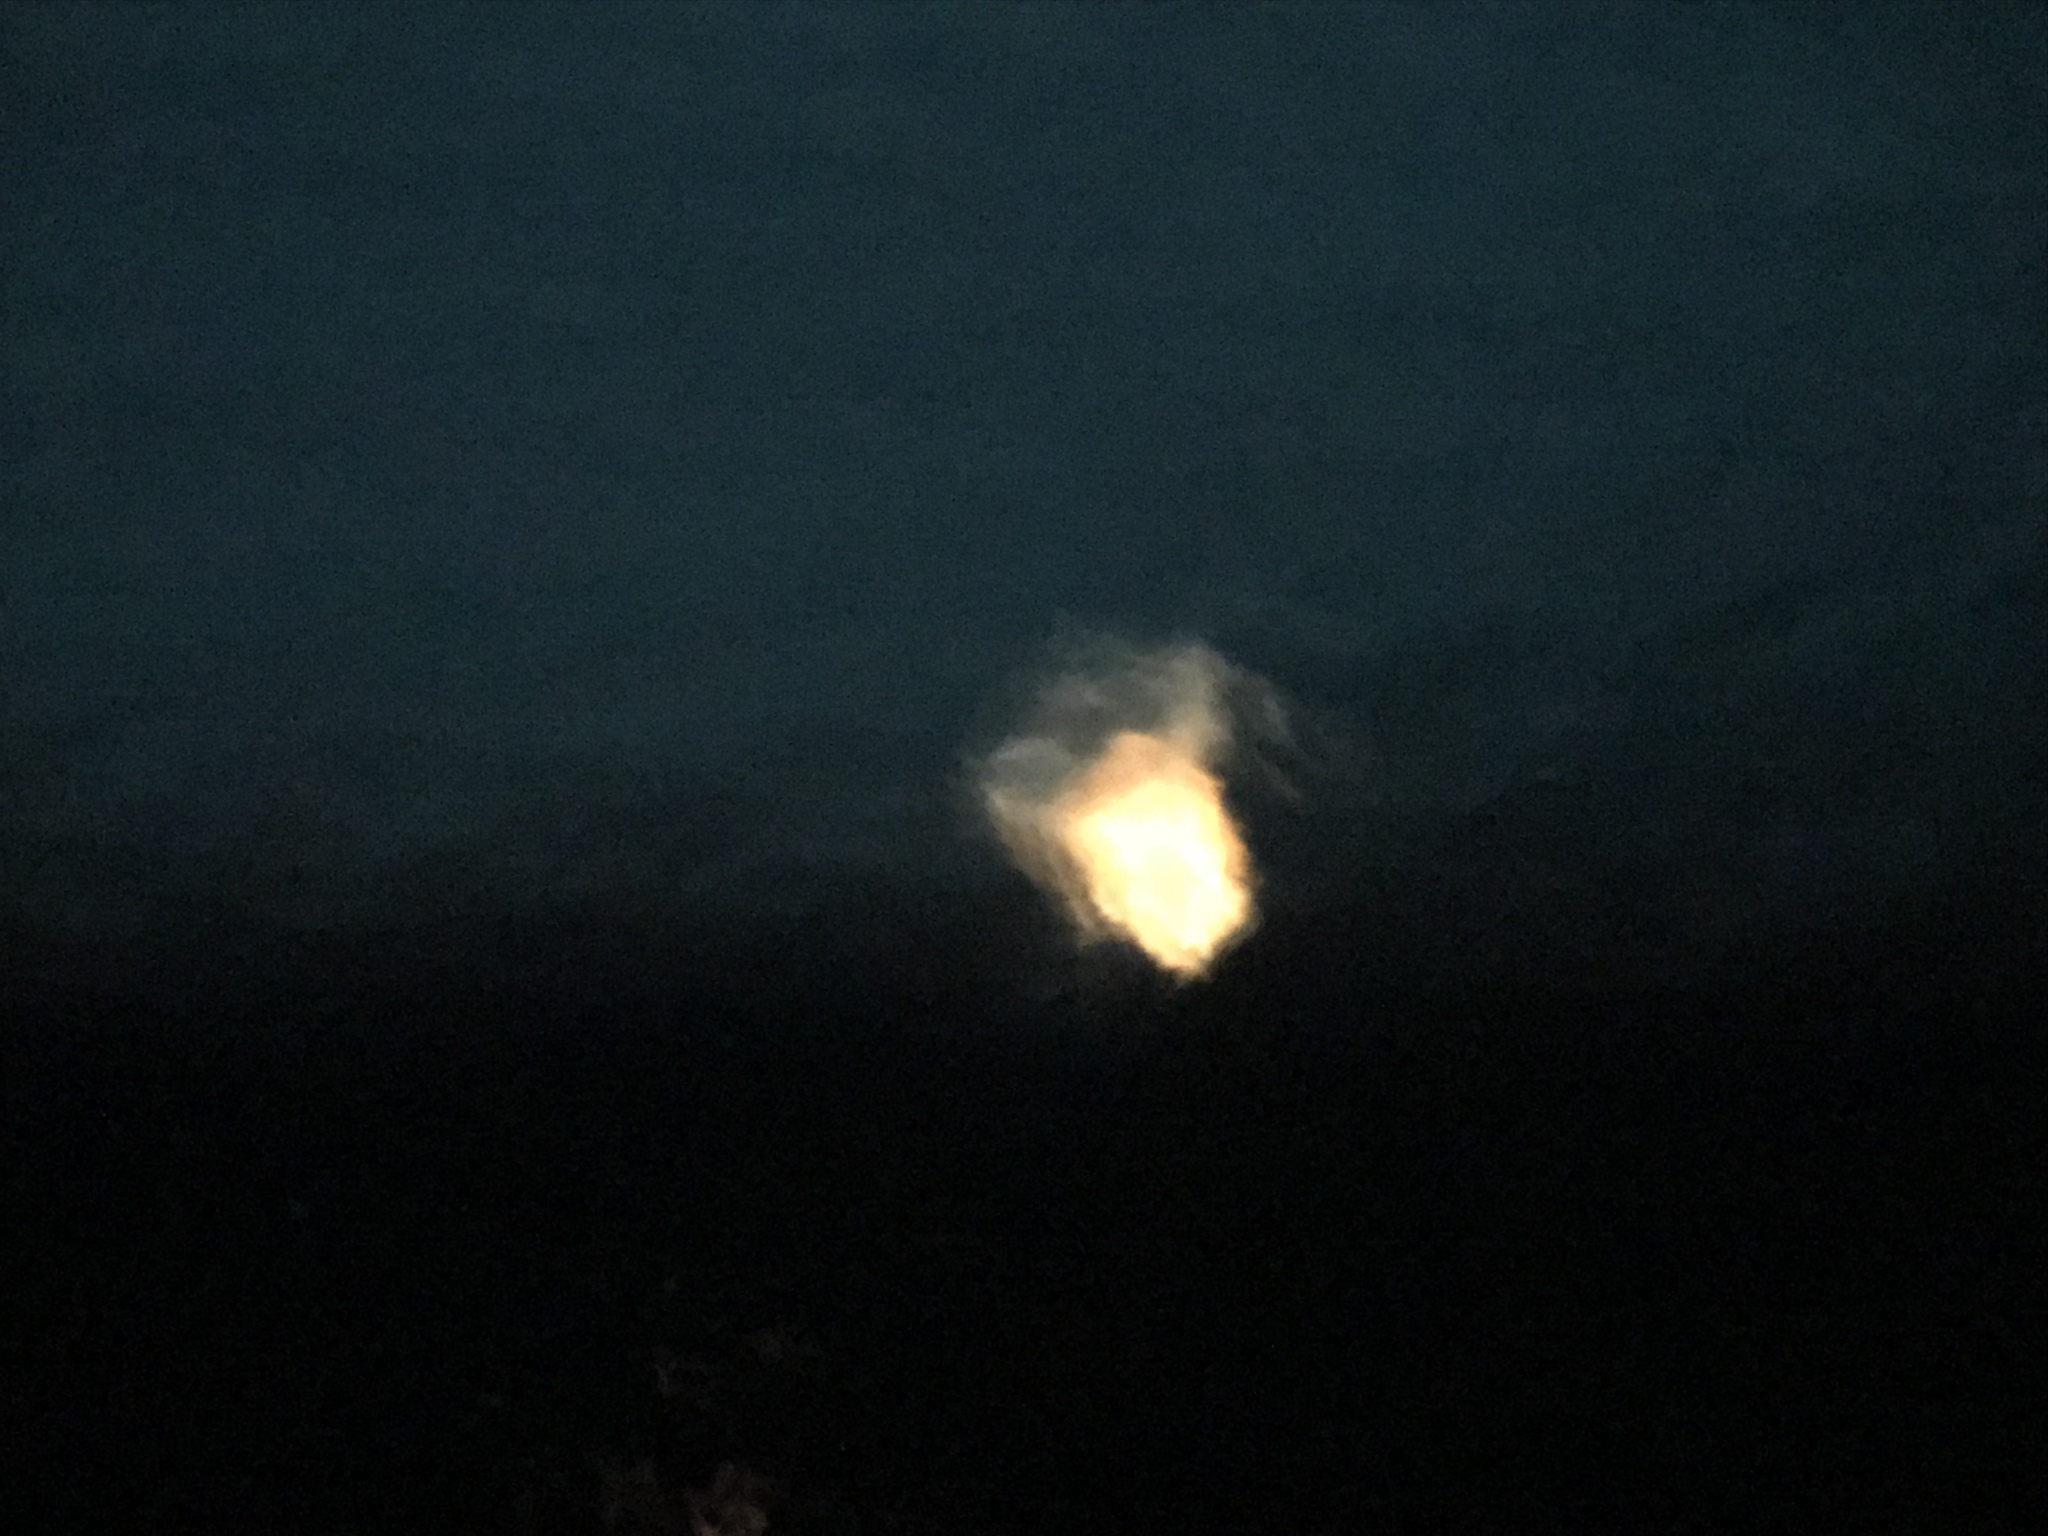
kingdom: Animalia
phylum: Cnidaria
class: Scyphozoa
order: Semaeostomeae
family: Phacellophoridae
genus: Phacellophora
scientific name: Phacellophora camtschatica
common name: Fried-egg jellyfish
